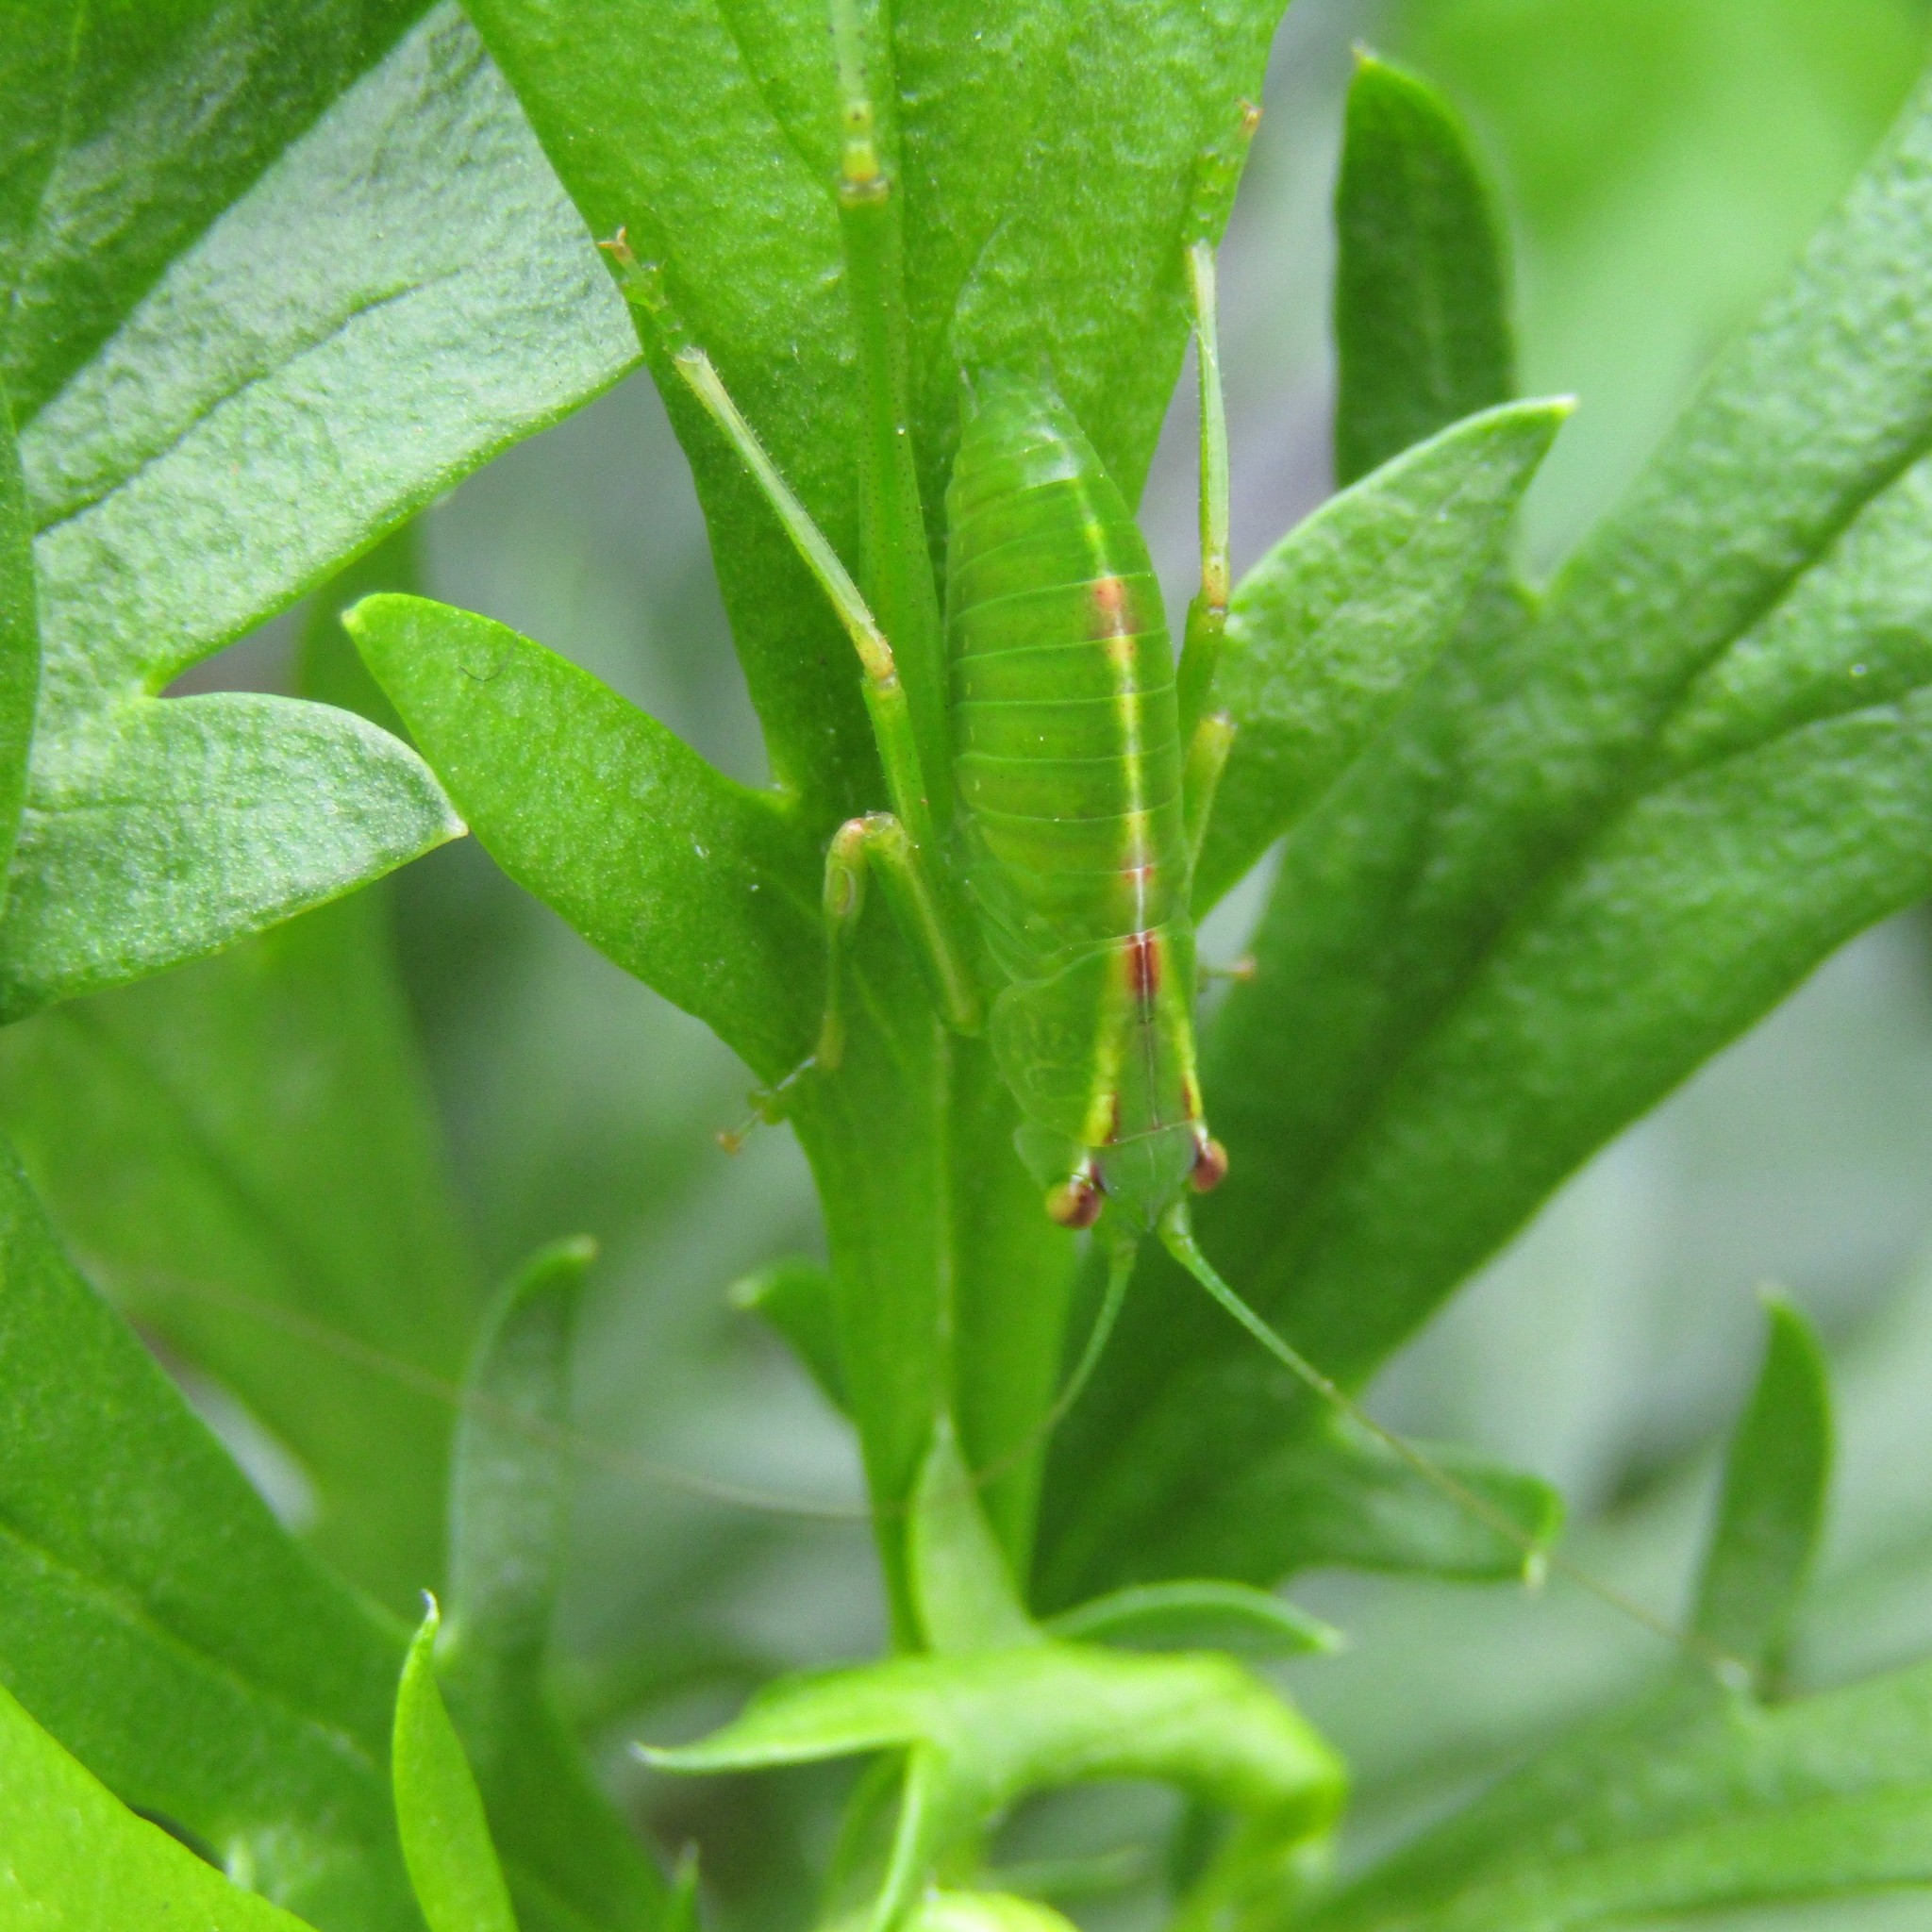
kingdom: Animalia
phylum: Arthropoda
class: Insecta
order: Orthoptera
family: Tettigoniidae
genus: Caedicia
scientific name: Caedicia simplex
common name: Common garden katydid
